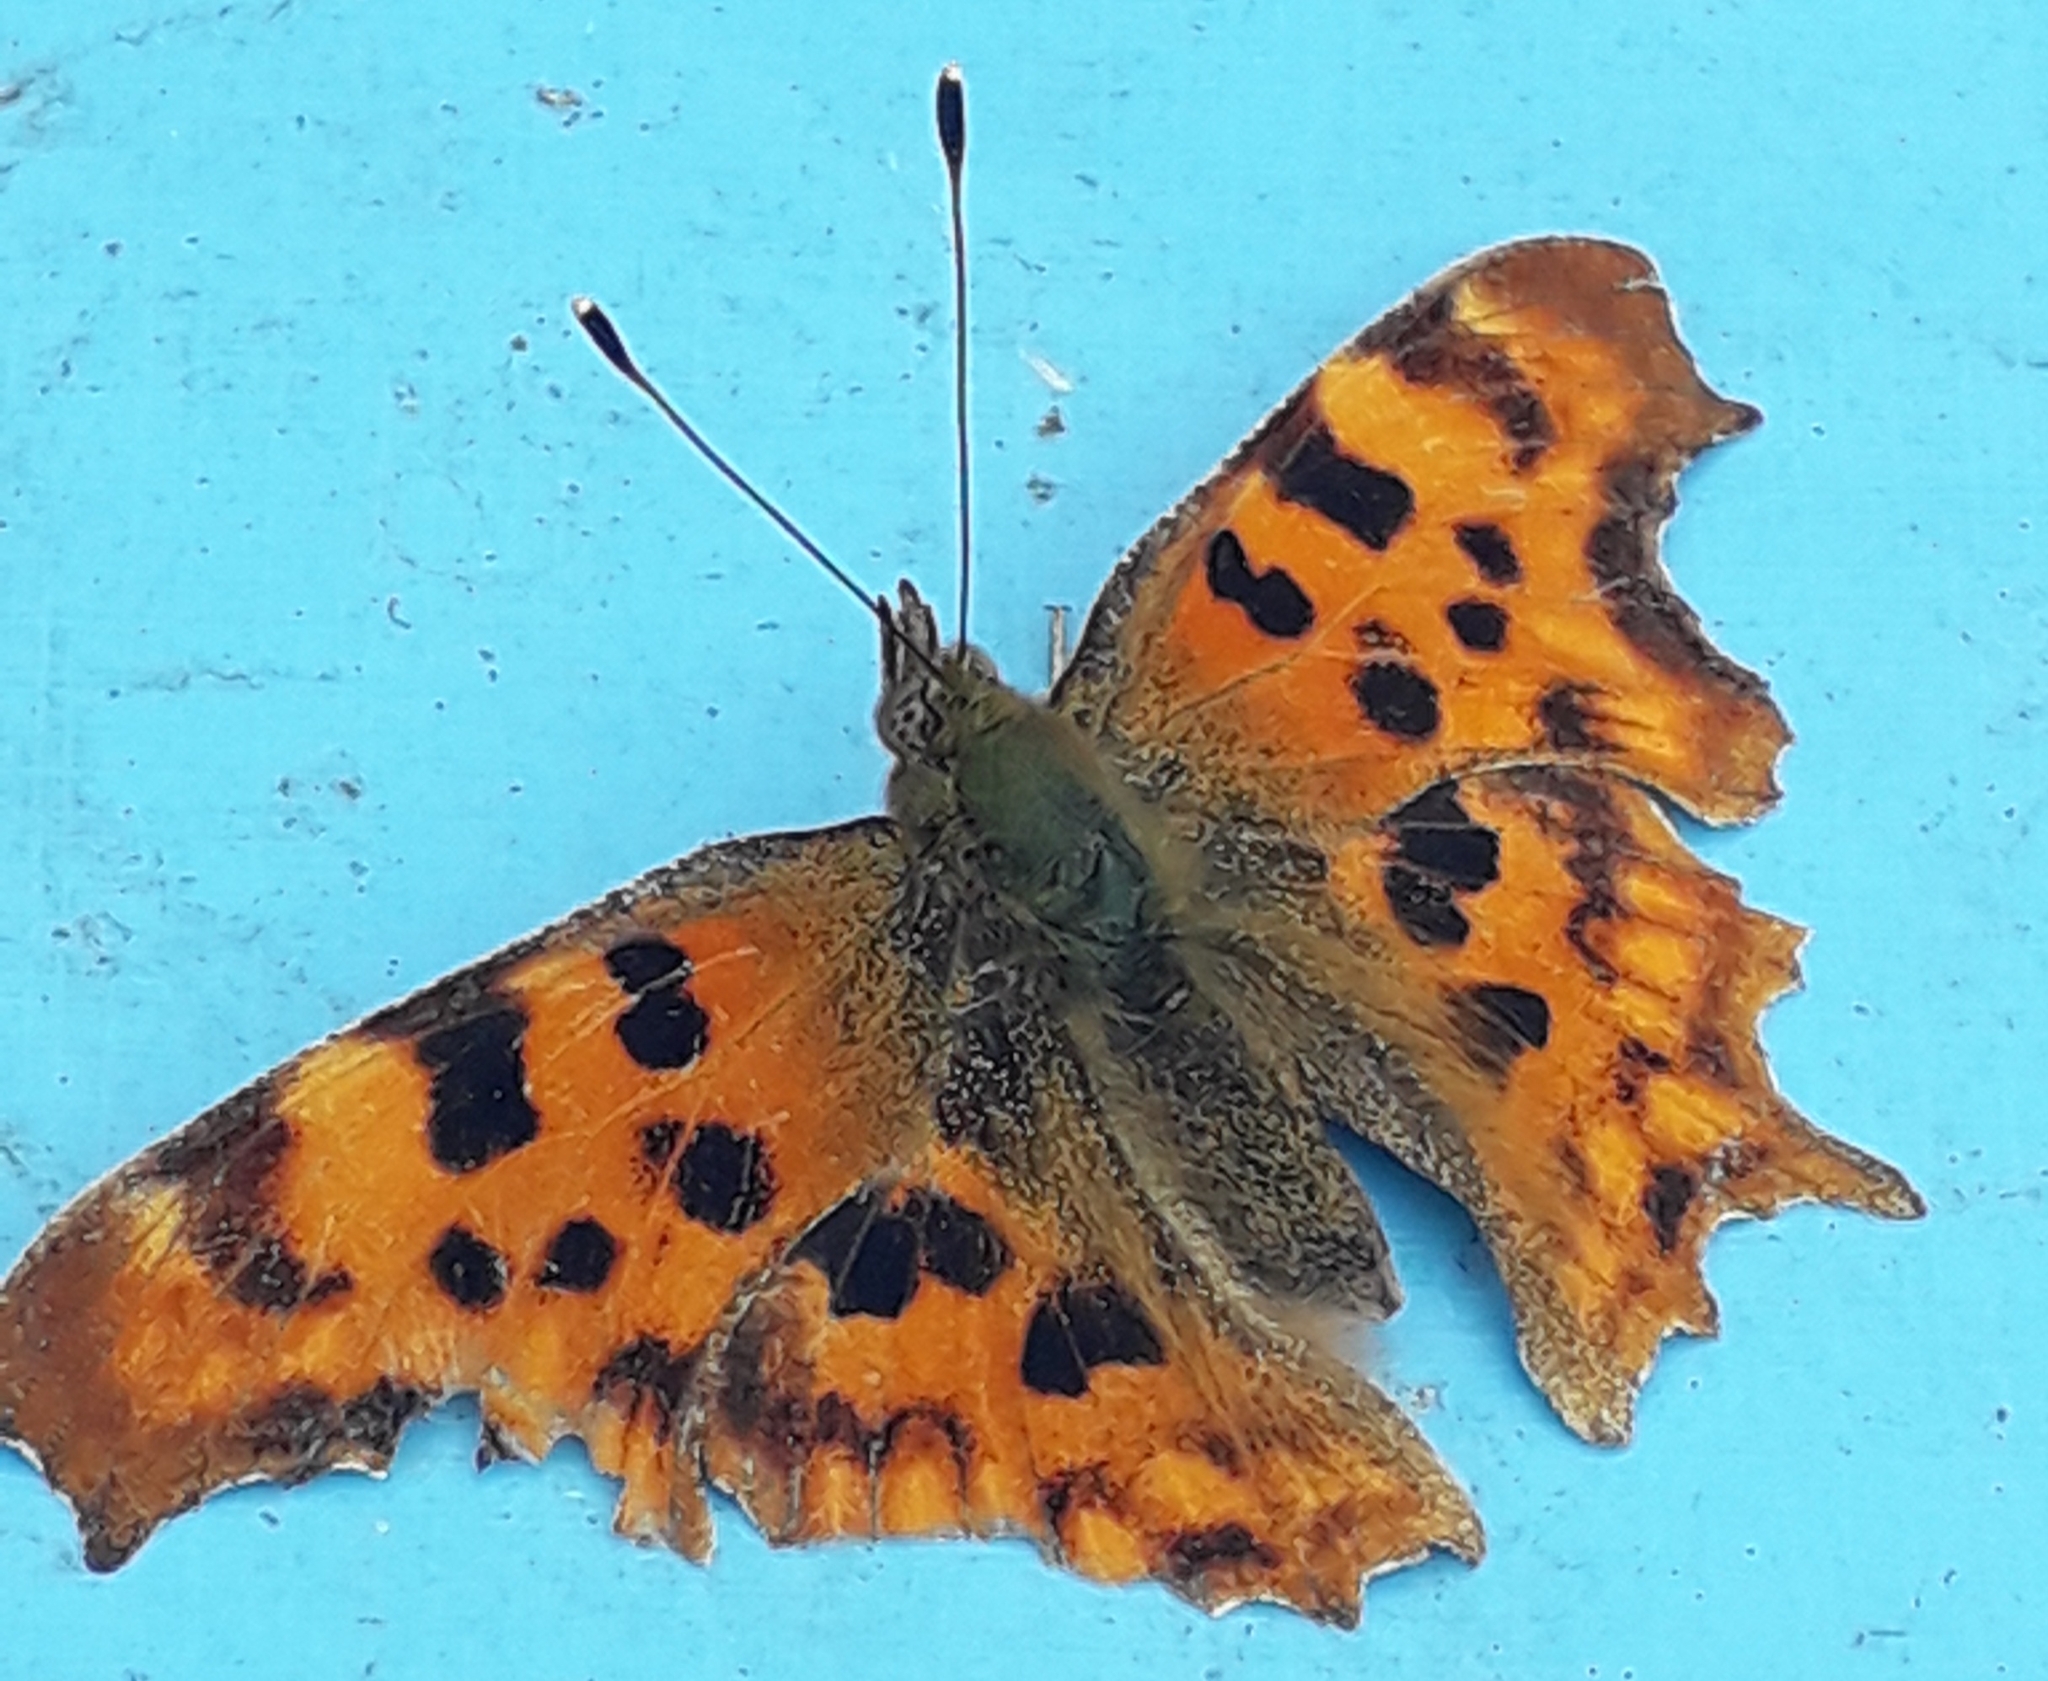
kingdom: Animalia
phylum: Arthropoda
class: Insecta
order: Lepidoptera
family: Nymphalidae
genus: Polygonia
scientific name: Polygonia c-album
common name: Comma
